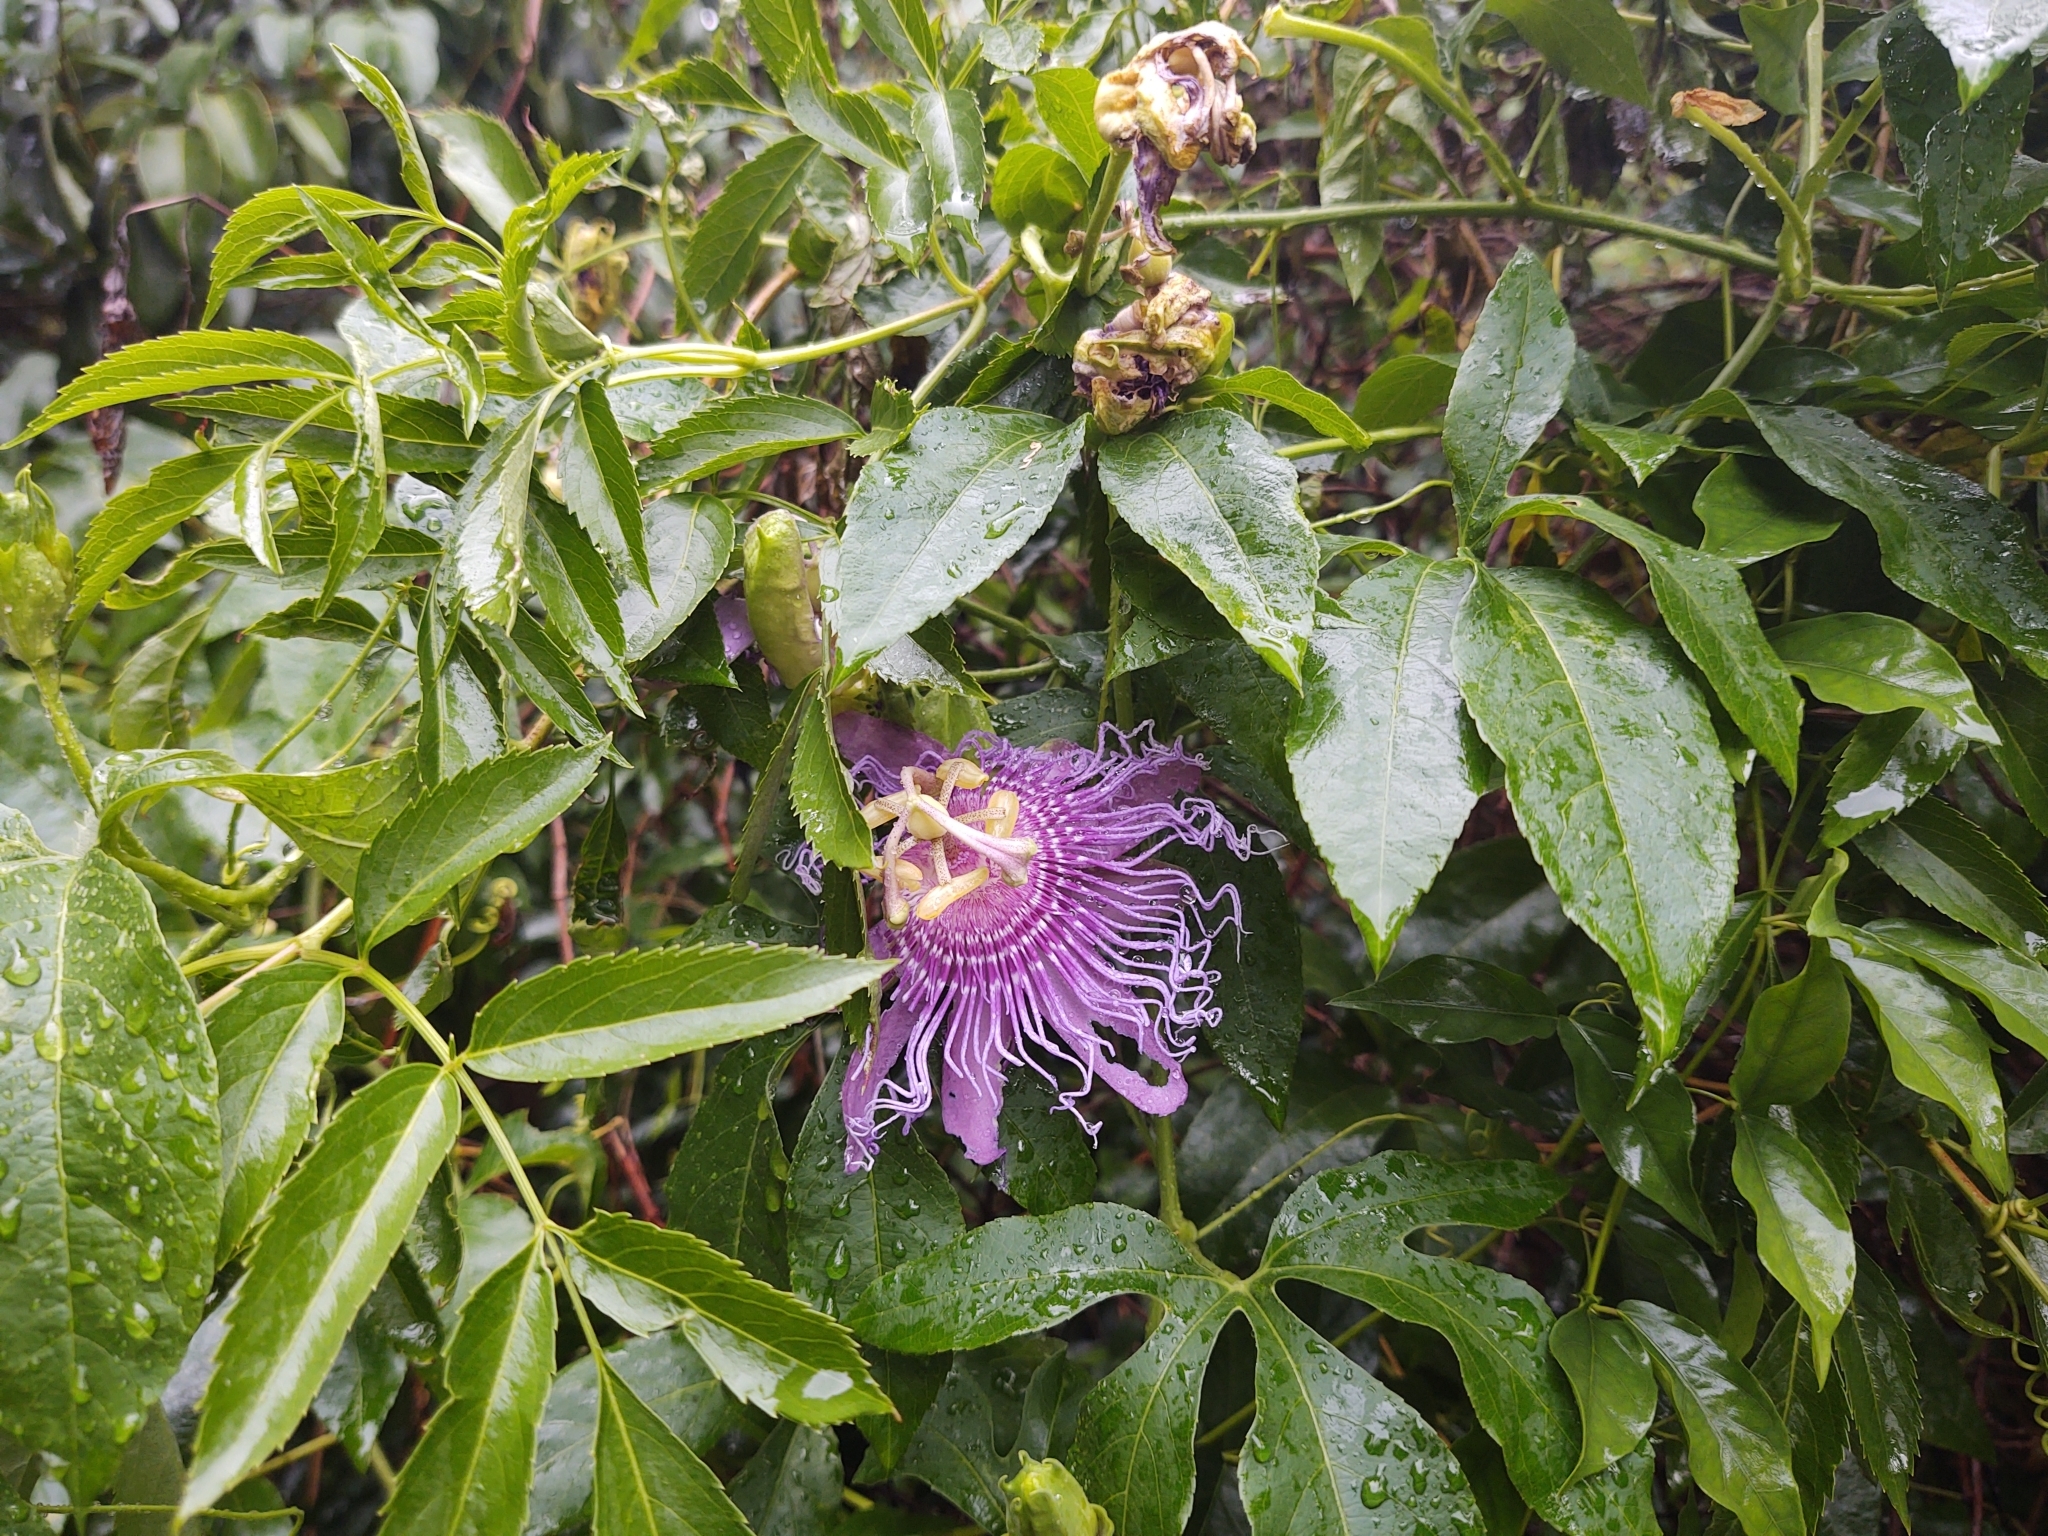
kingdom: Plantae
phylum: Tracheophyta
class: Magnoliopsida
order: Malpighiales
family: Passifloraceae
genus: Passiflora
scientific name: Passiflora
